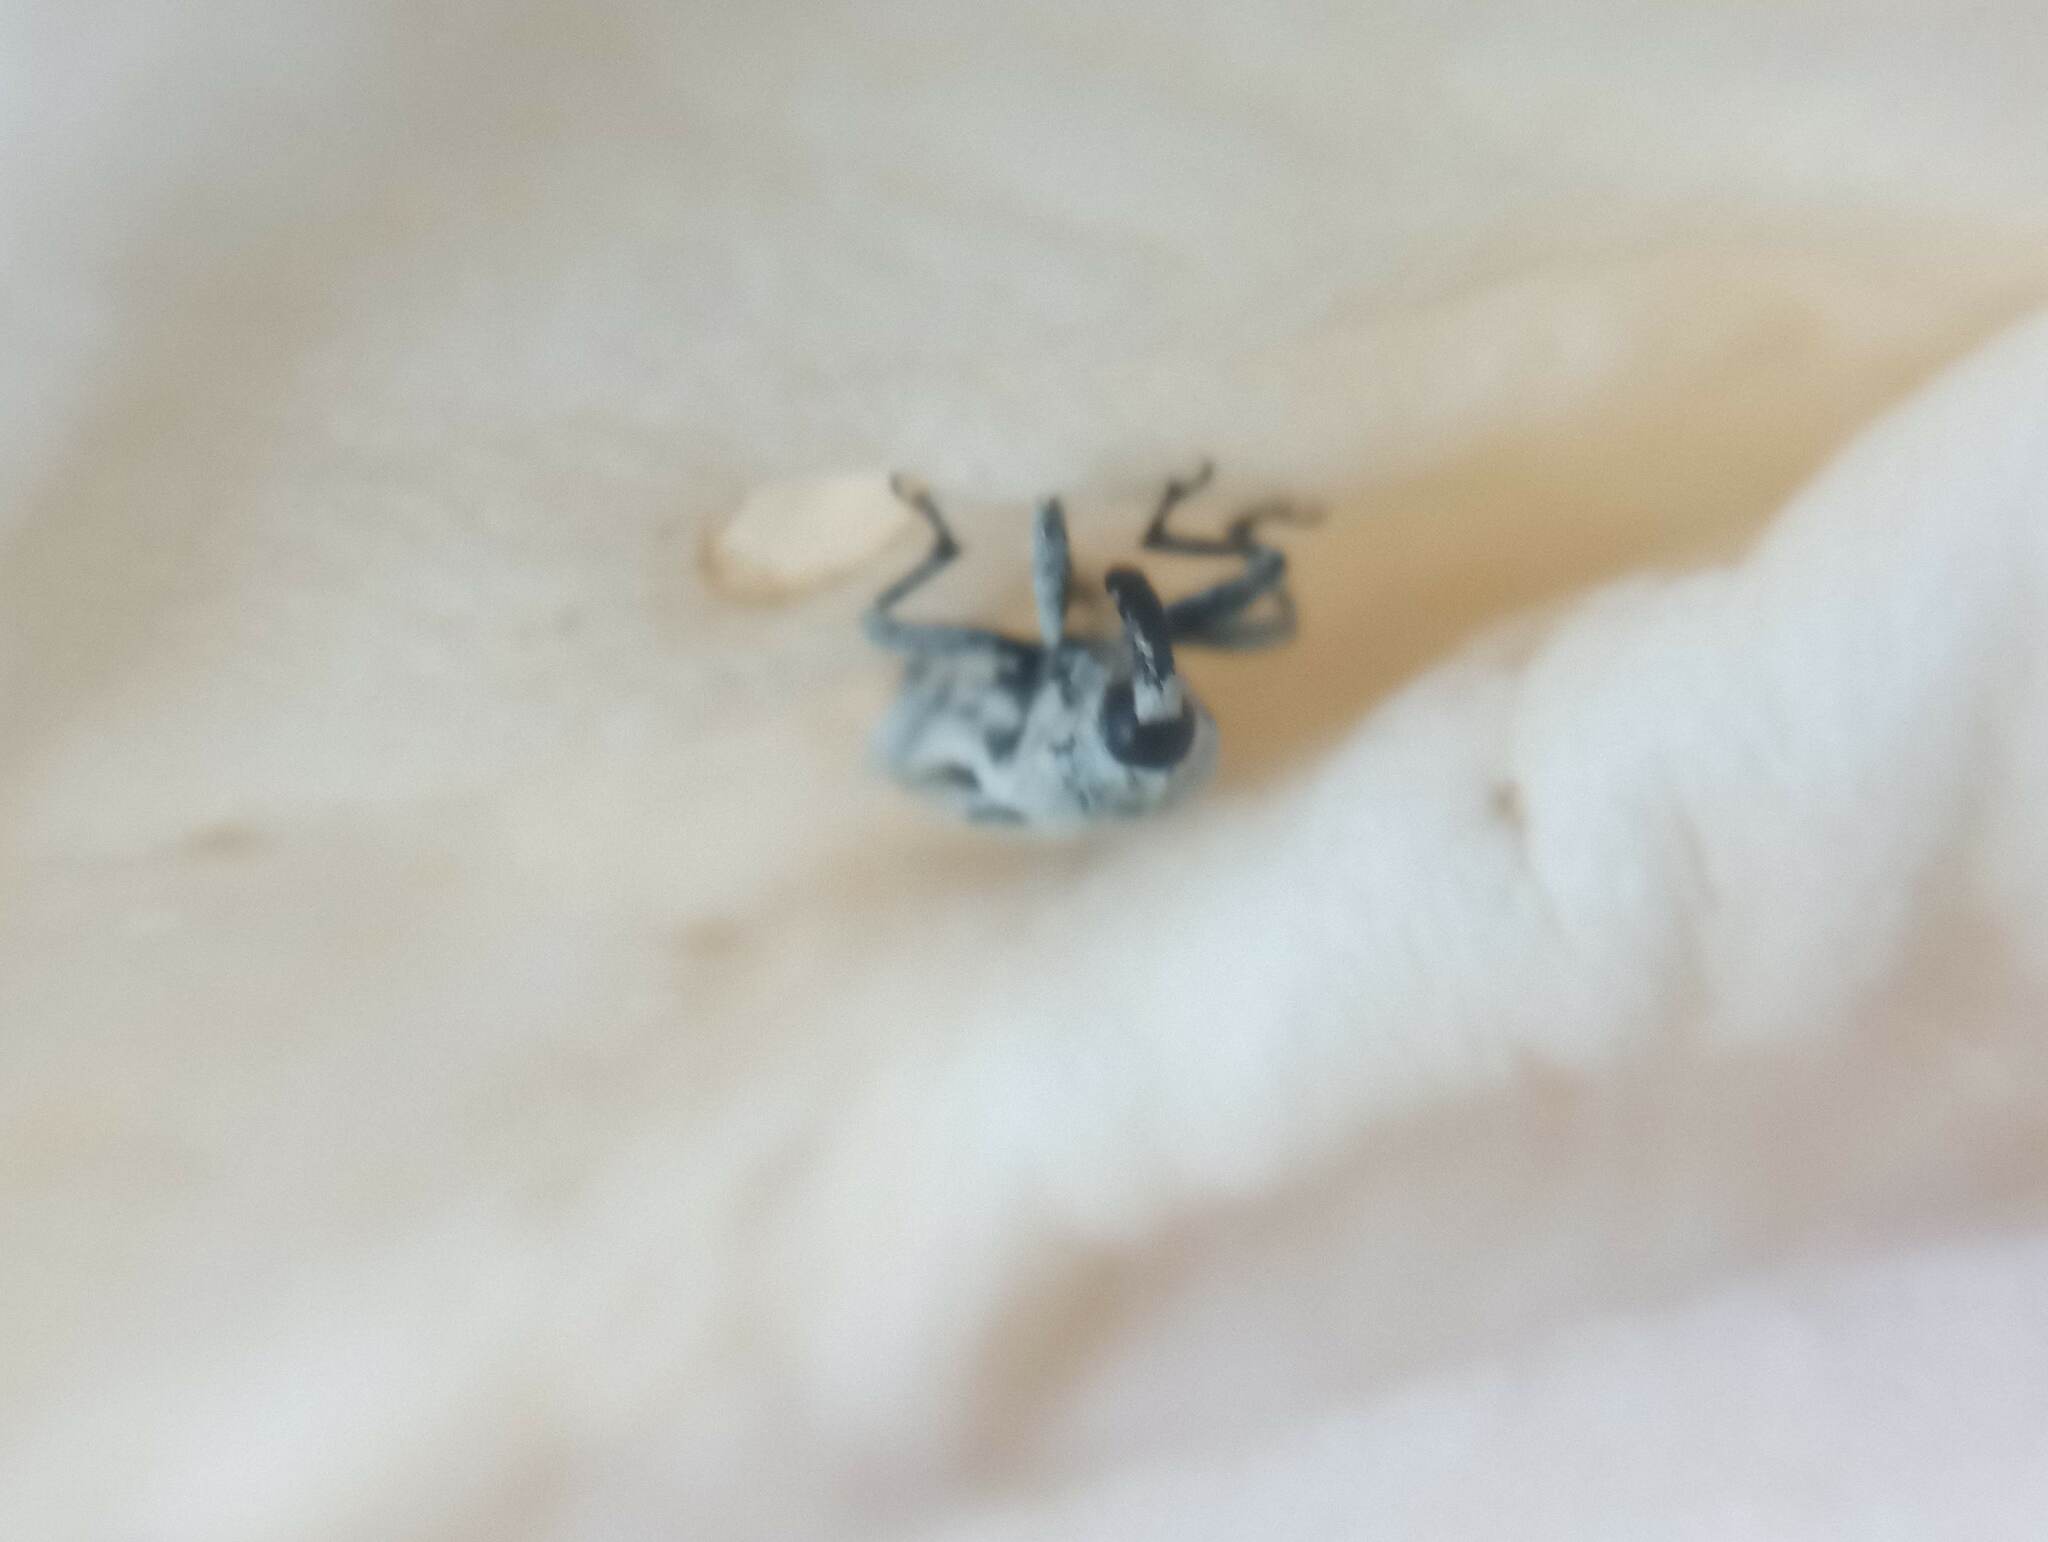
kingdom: Animalia
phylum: Arthropoda
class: Insecta
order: Coleoptera
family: Curculionidae
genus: Trichobaris
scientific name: Trichobaris compacta
